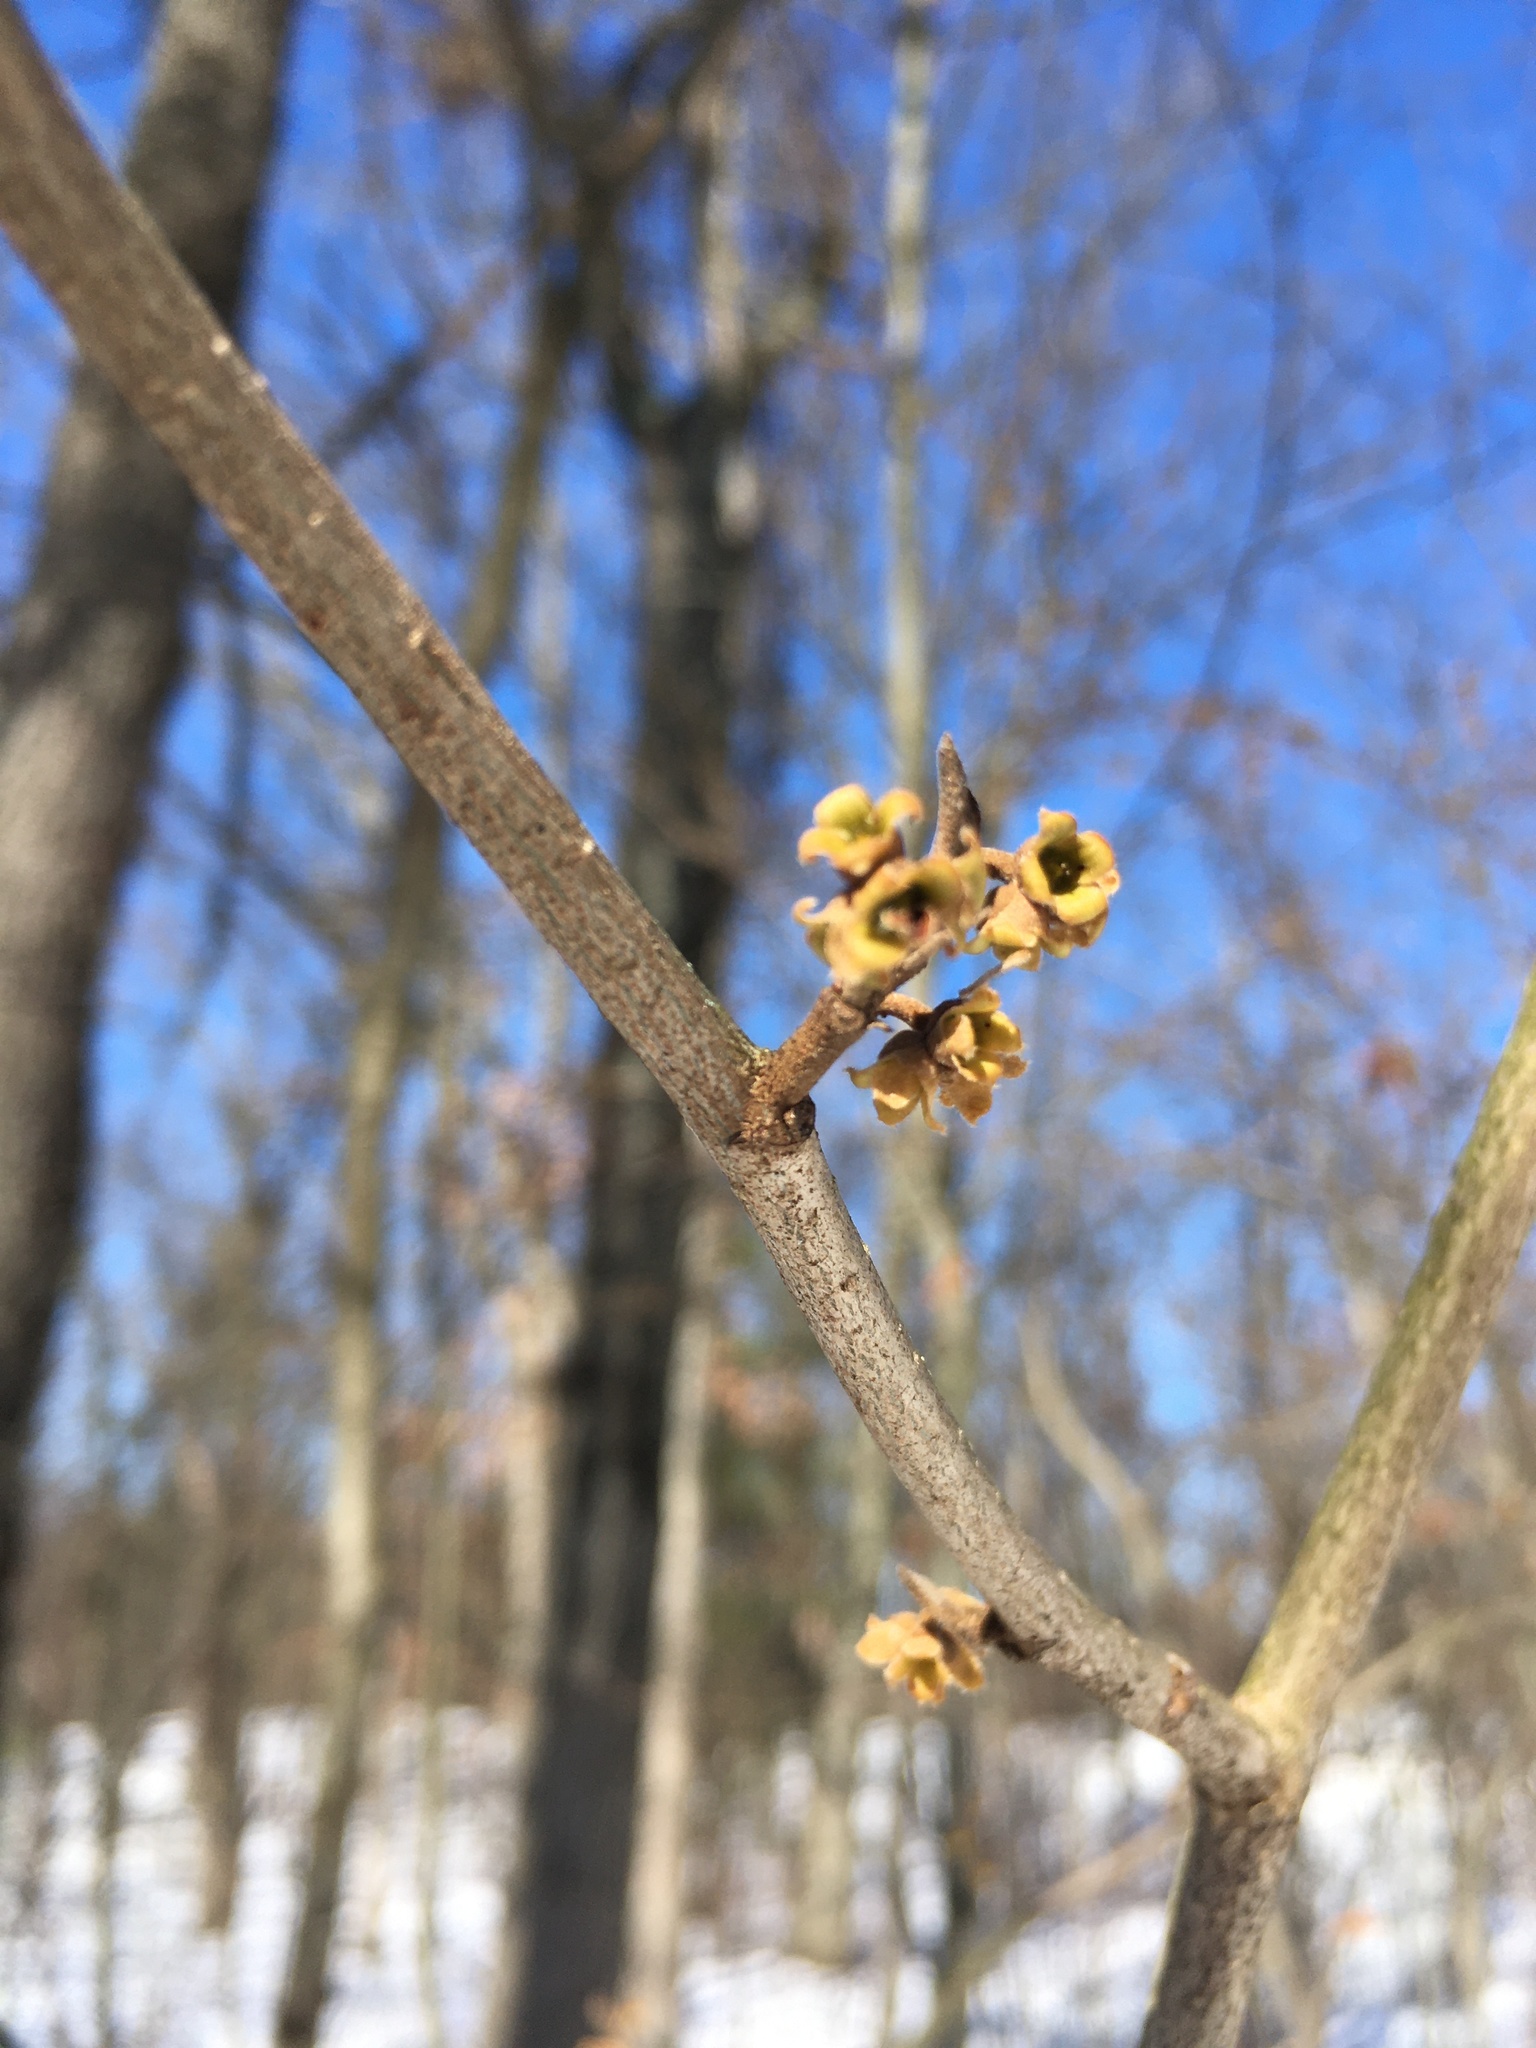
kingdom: Plantae
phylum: Tracheophyta
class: Magnoliopsida
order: Saxifragales
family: Hamamelidaceae
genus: Hamamelis
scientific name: Hamamelis virginiana
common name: Witch-hazel
